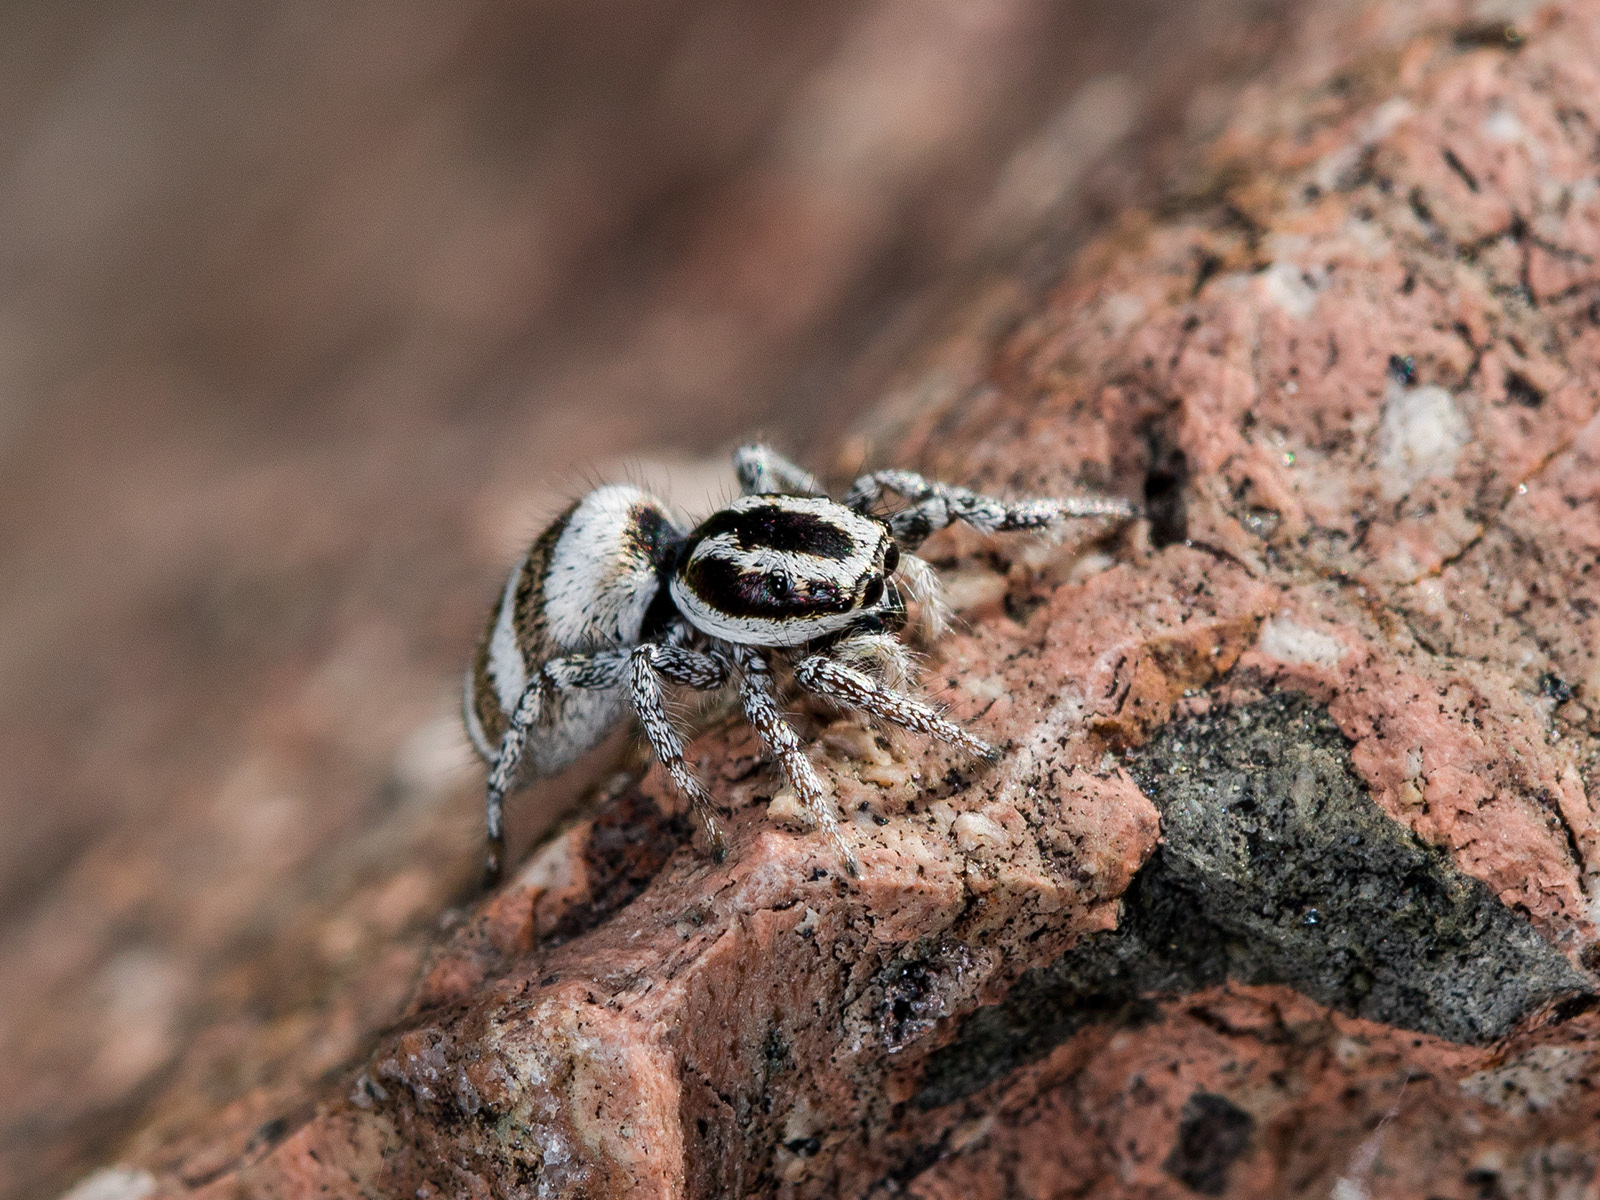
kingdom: Animalia
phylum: Arthropoda
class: Arachnida
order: Araneae
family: Salticidae
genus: Salticus
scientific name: Salticus tricinctus
